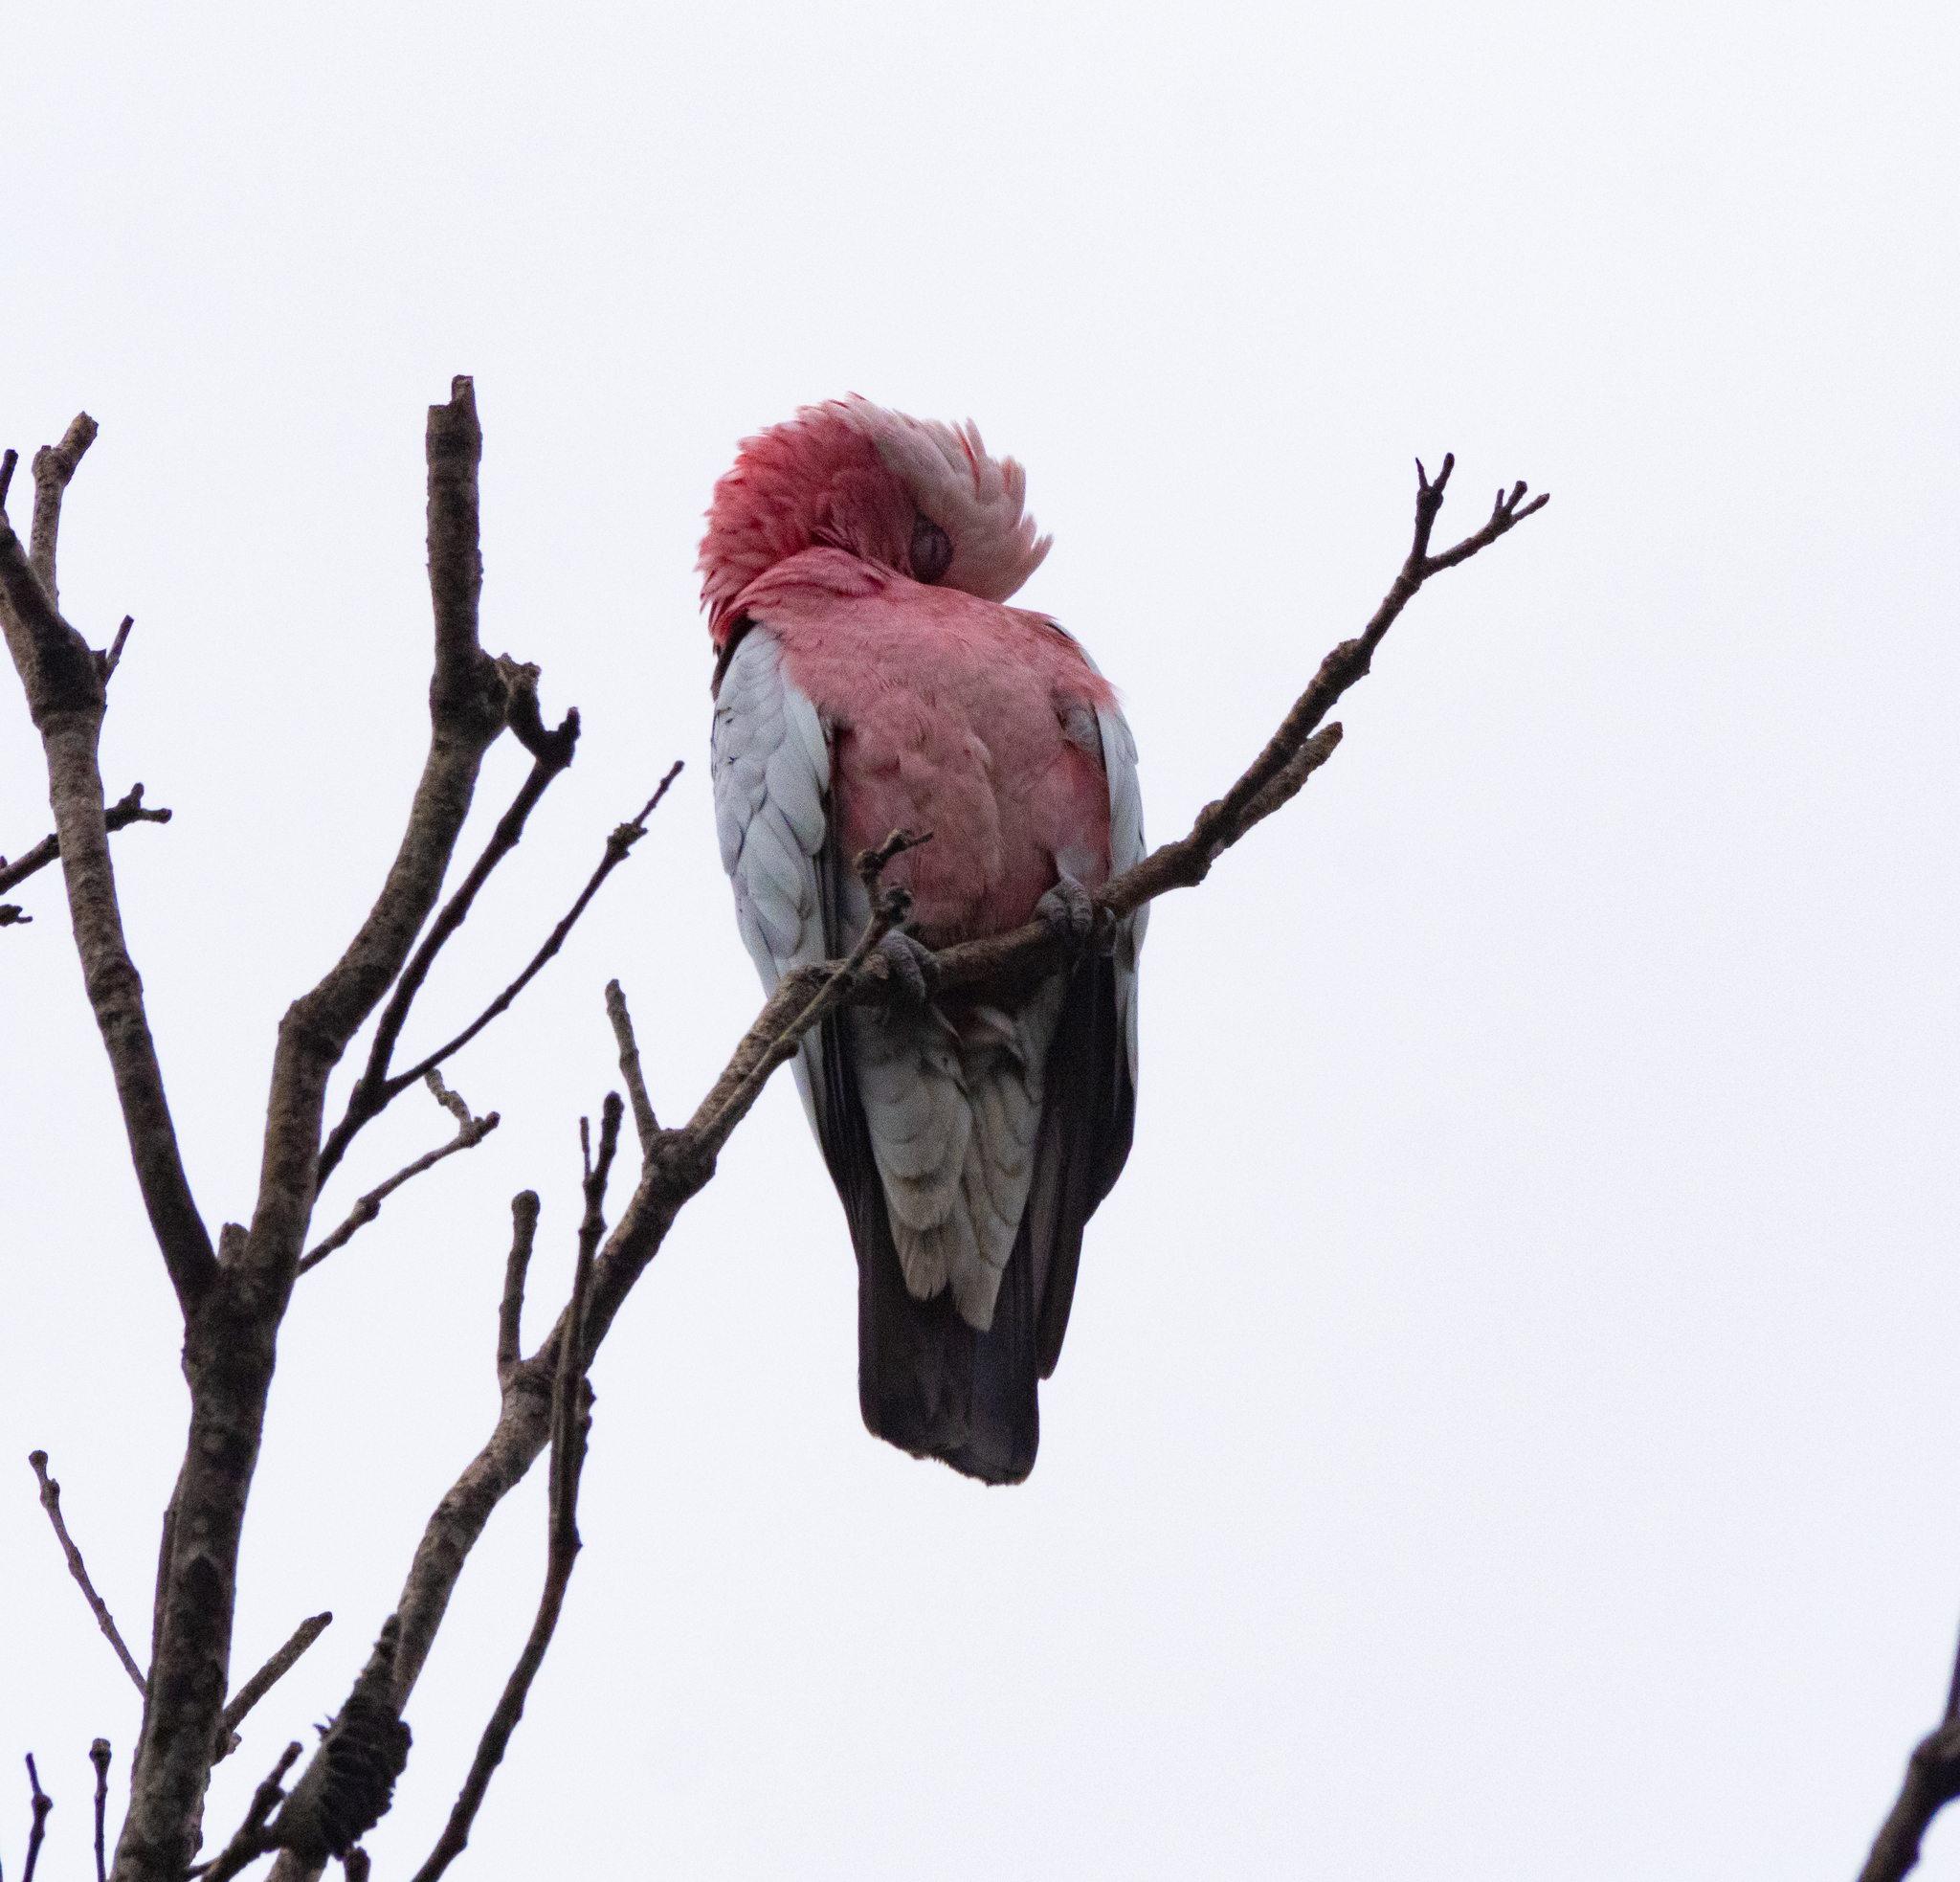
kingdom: Animalia
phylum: Chordata
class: Aves
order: Psittaciformes
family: Psittacidae
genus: Eolophus
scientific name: Eolophus roseicapilla
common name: Galah
